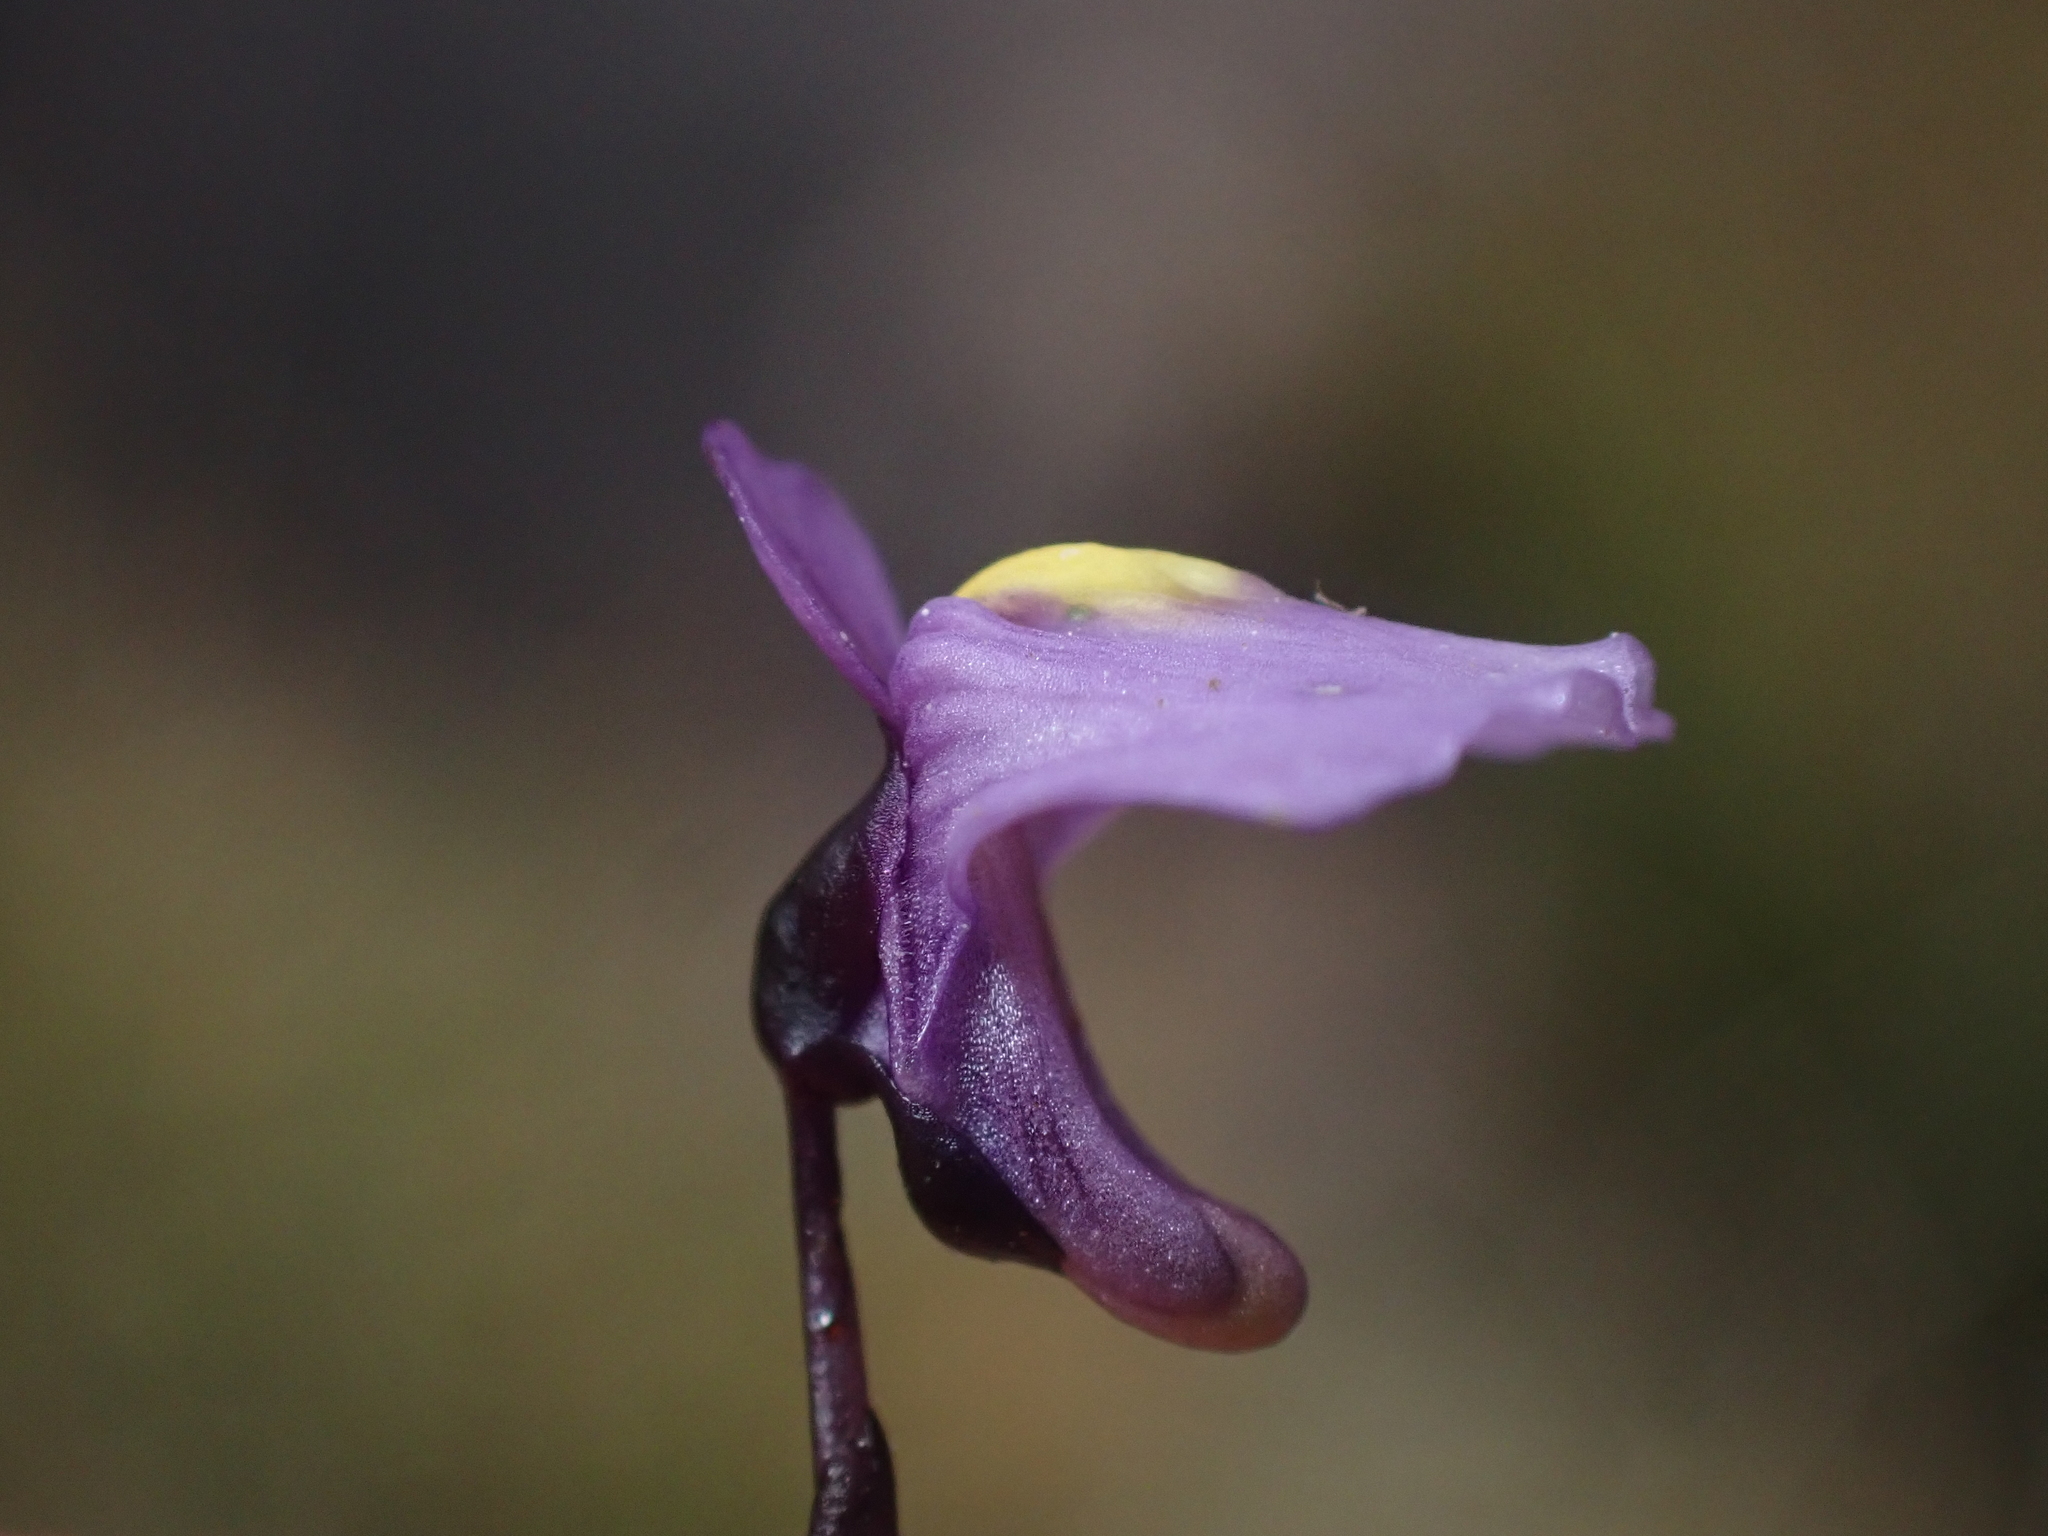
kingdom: Plantae
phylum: Tracheophyta
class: Magnoliopsida
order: Lamiales
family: Lentibulariaceae
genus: Utricularia
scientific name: Utricularia dichotoma
